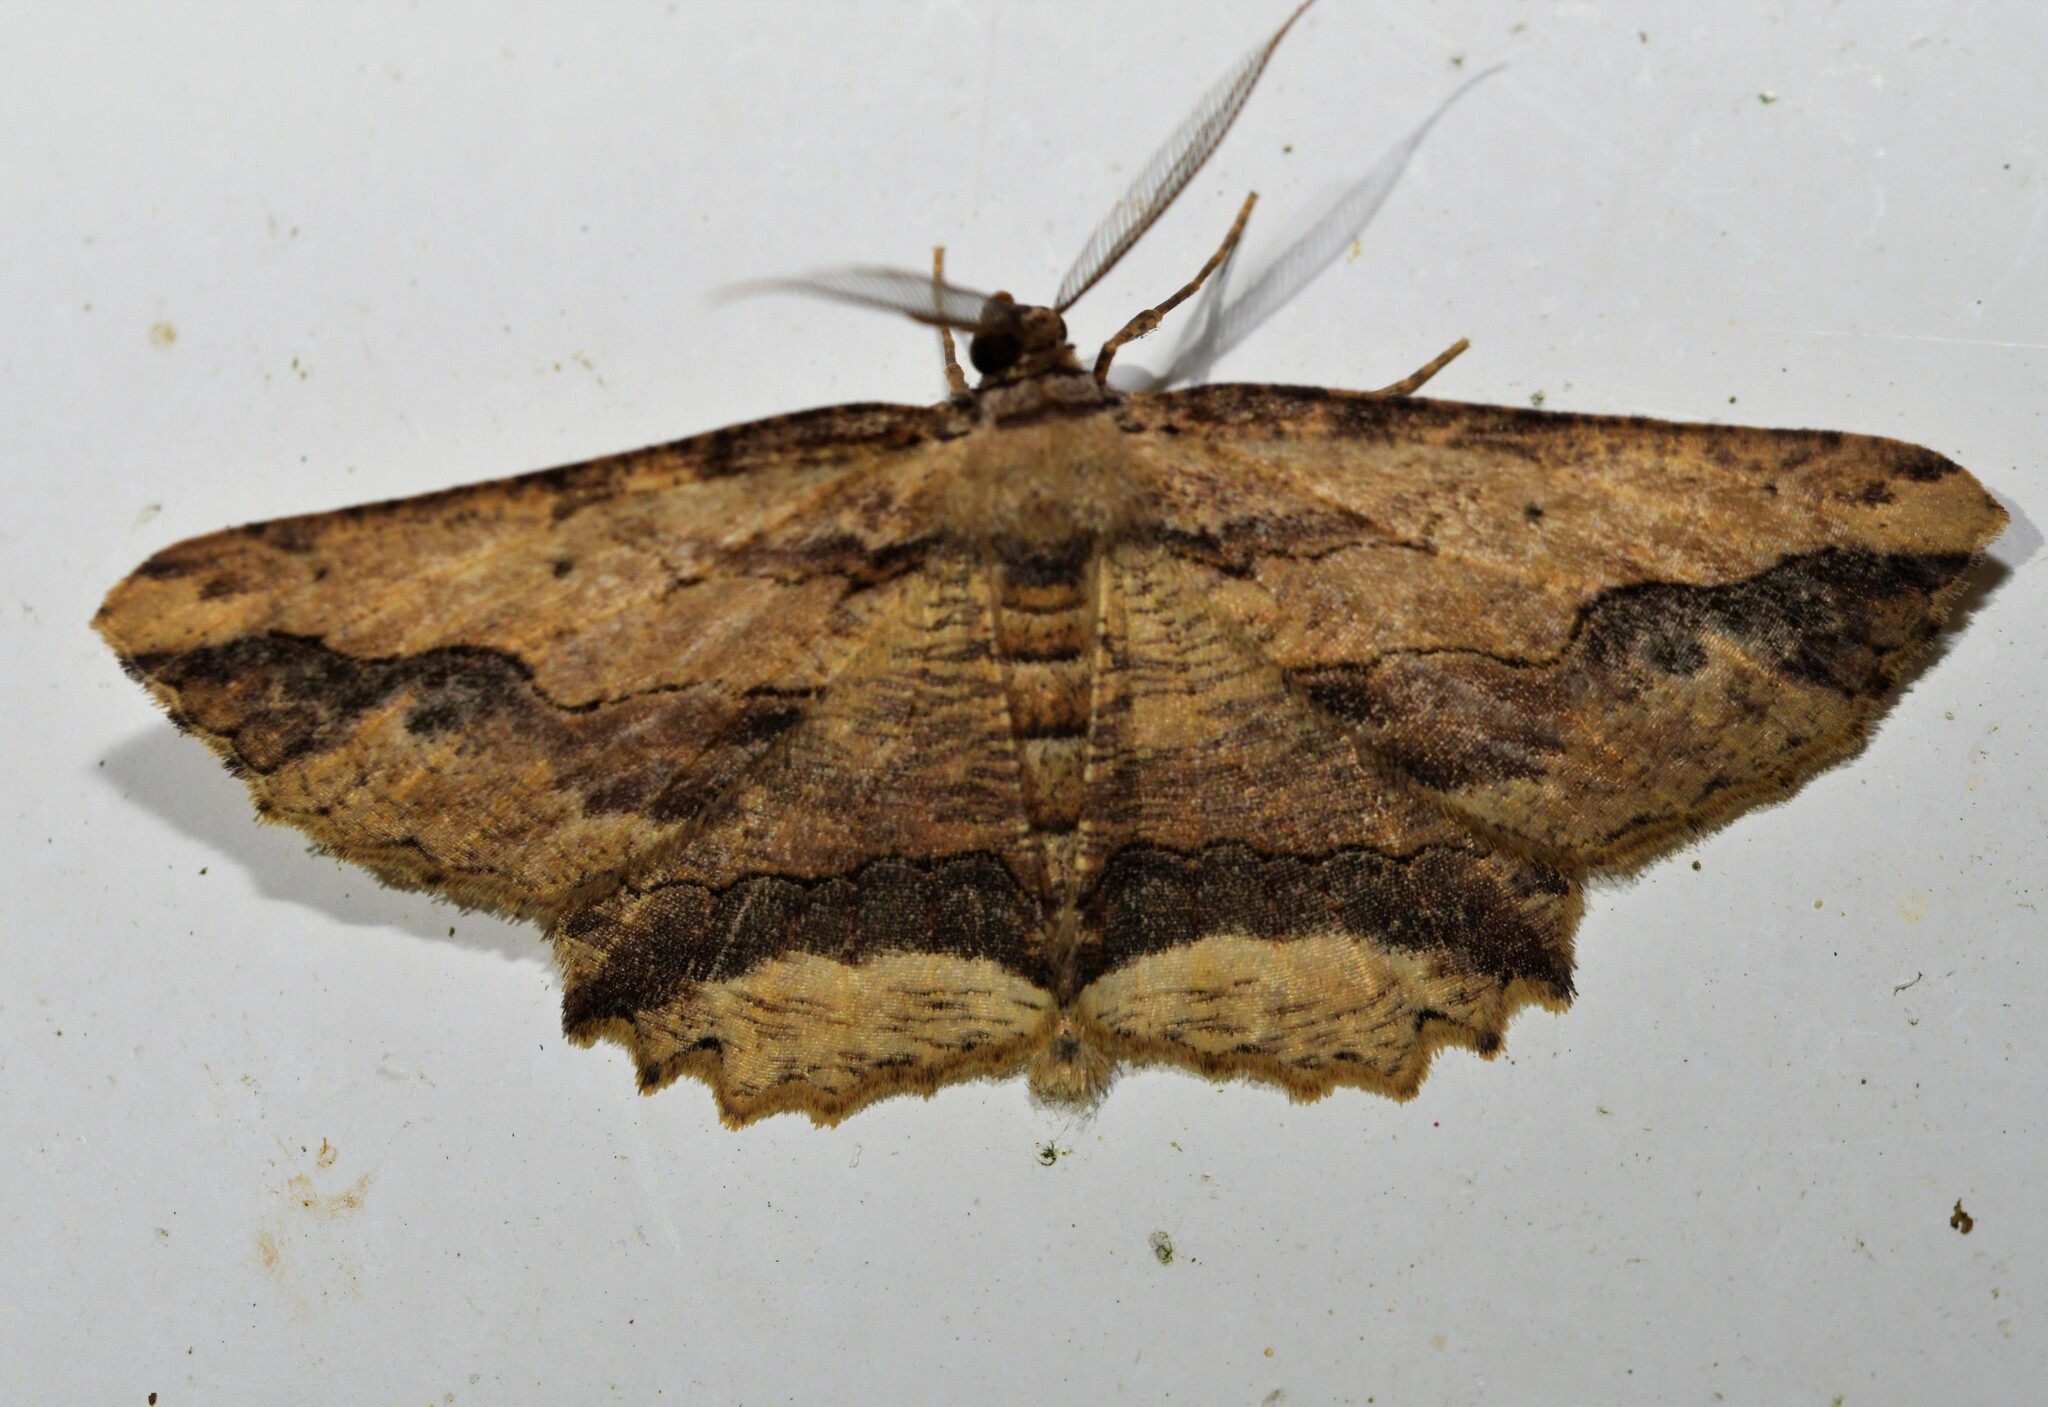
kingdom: Animalia
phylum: Arthropoda
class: Insecta
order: Lepidoptera
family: Geometridae
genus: Menophra
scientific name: Menophra abruptaria
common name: Waved umber
